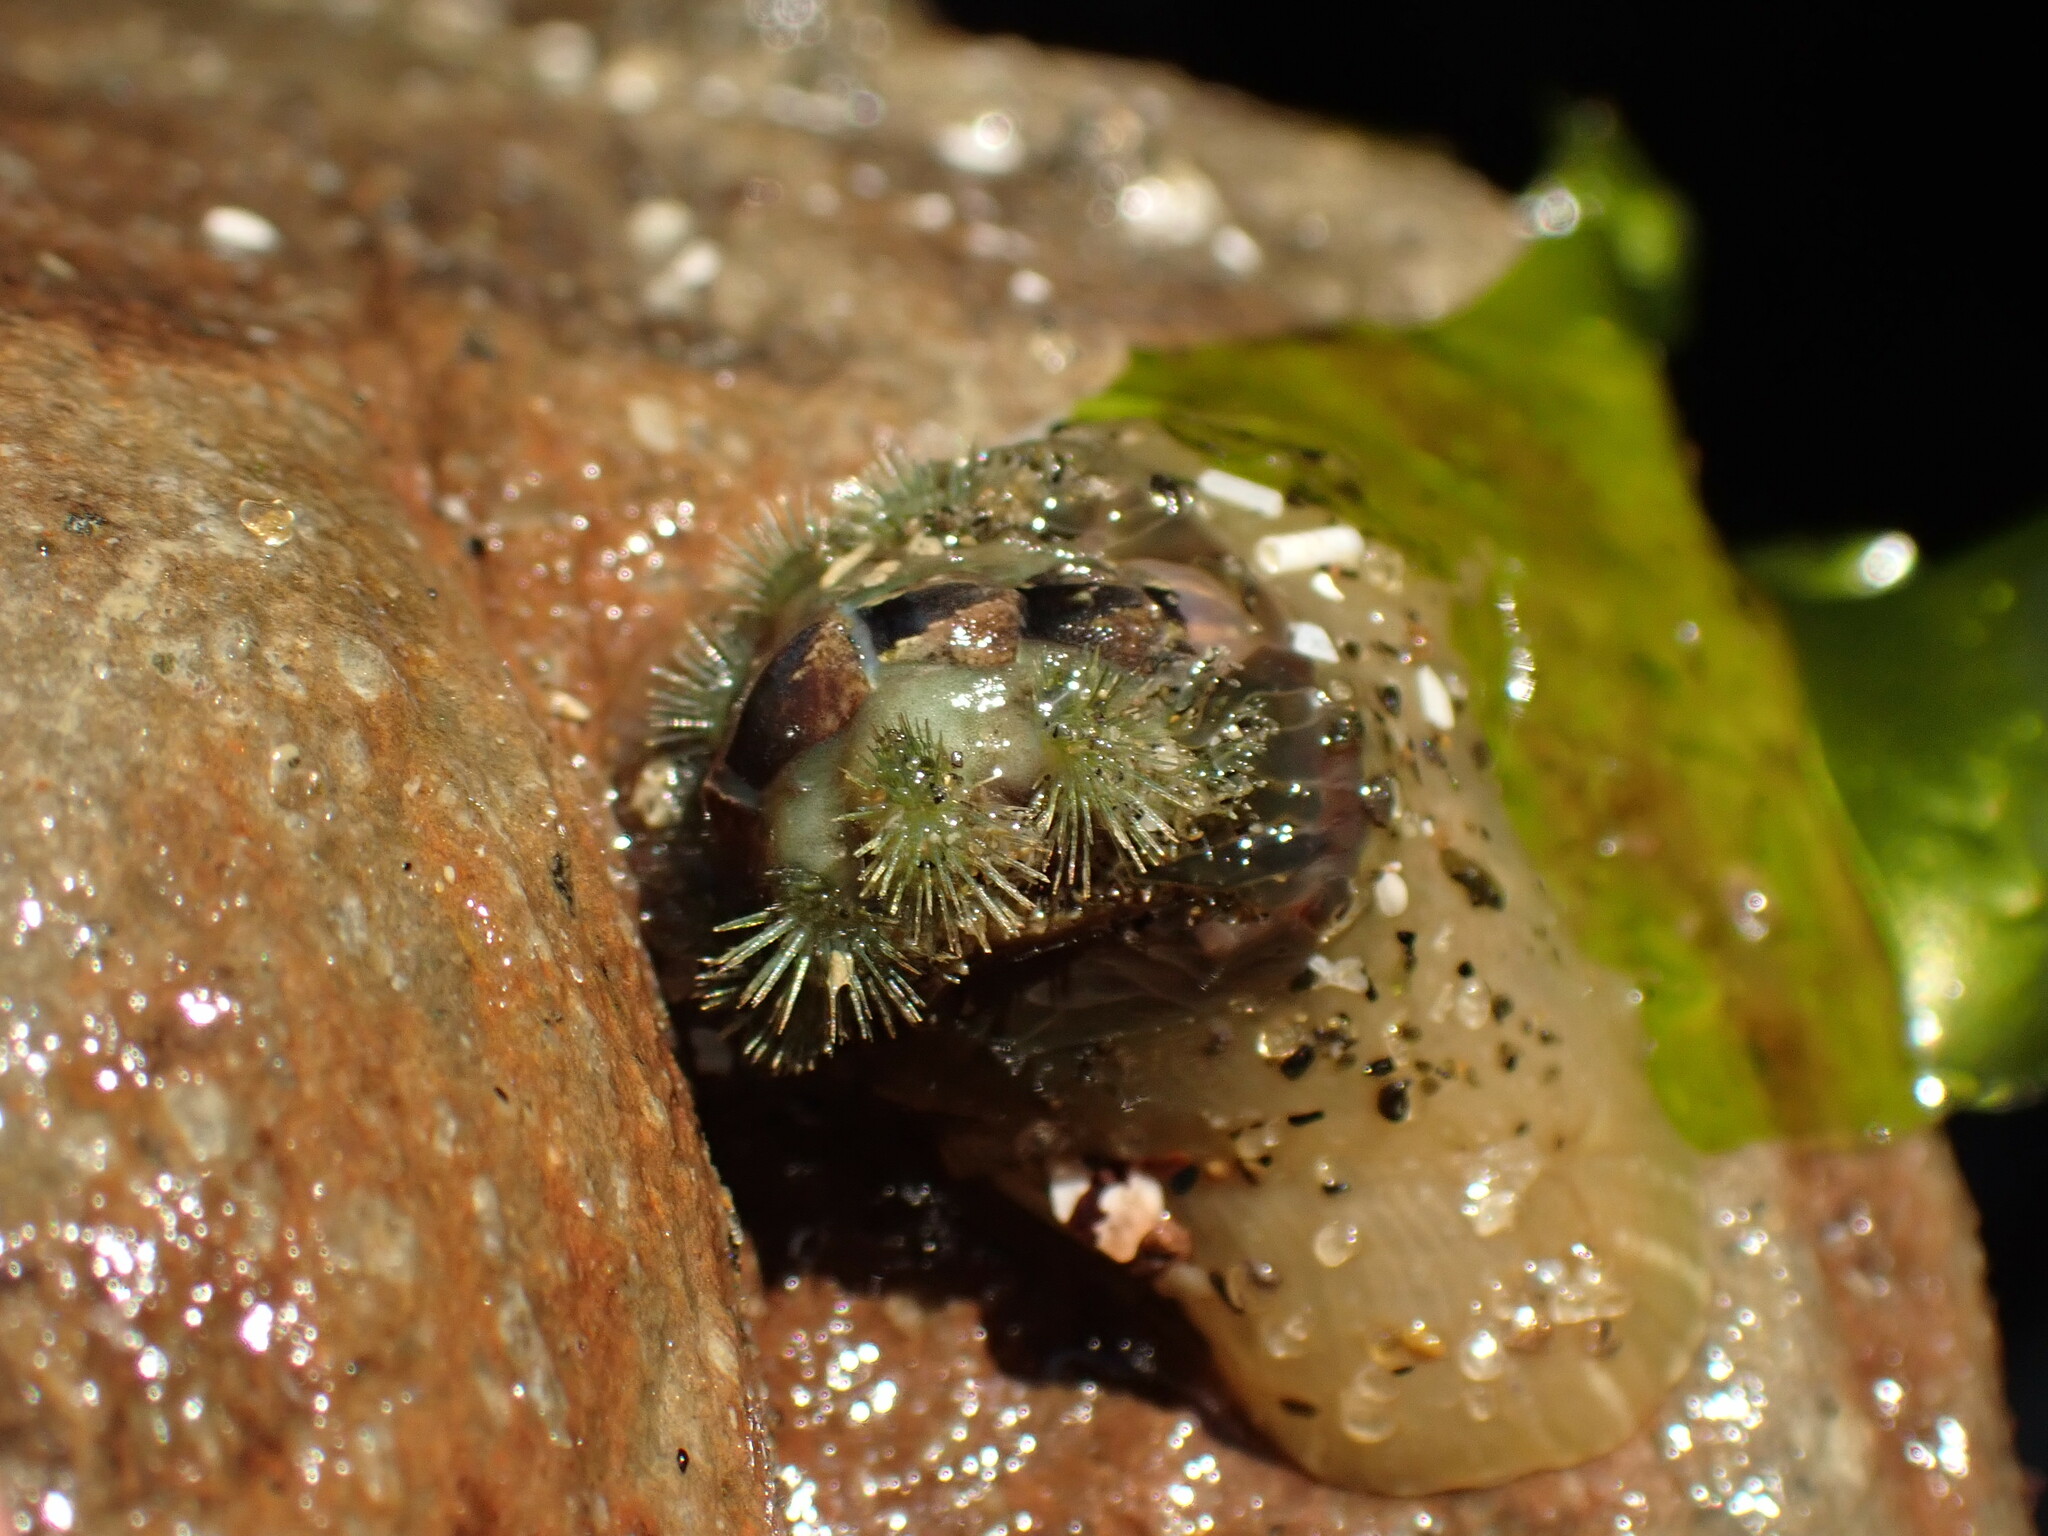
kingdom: Animalia
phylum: Mollusca
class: Polyplacophora
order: Chitonida
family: Acanthochitonidae
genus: Acanthochitona
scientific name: Acanthochitona zelandica
